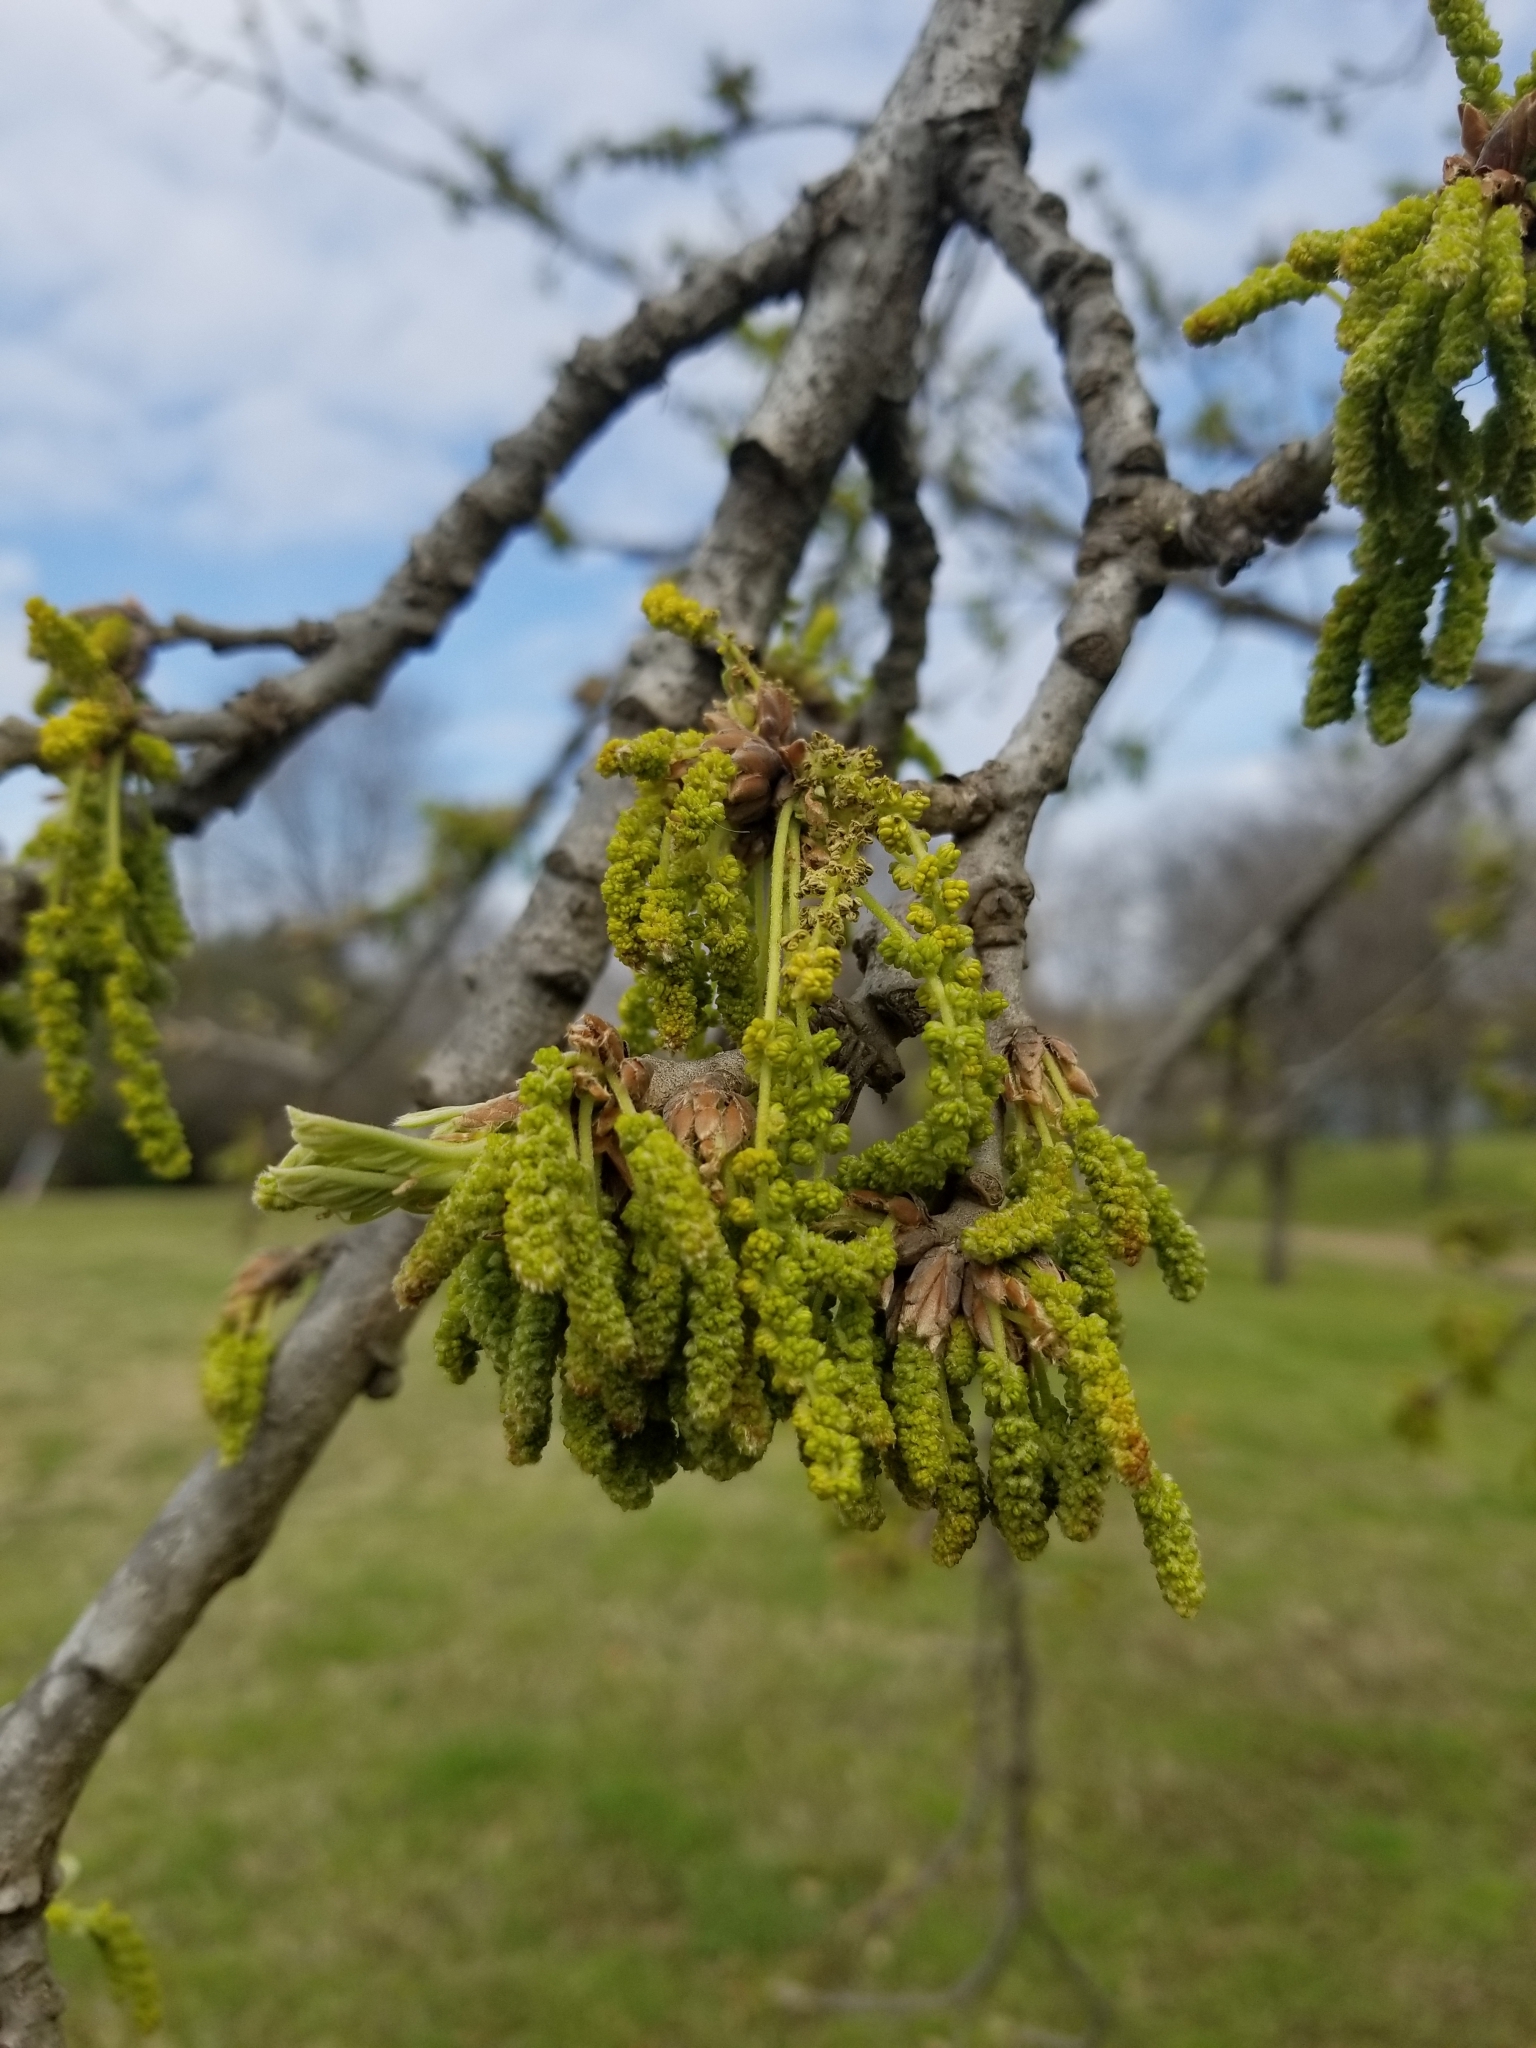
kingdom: Plantae
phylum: Tracheophyta
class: Magnoliopsida
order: Fagales
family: Fagaceae
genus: Quercus
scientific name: Quercus macrocarpa
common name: Bur oak
